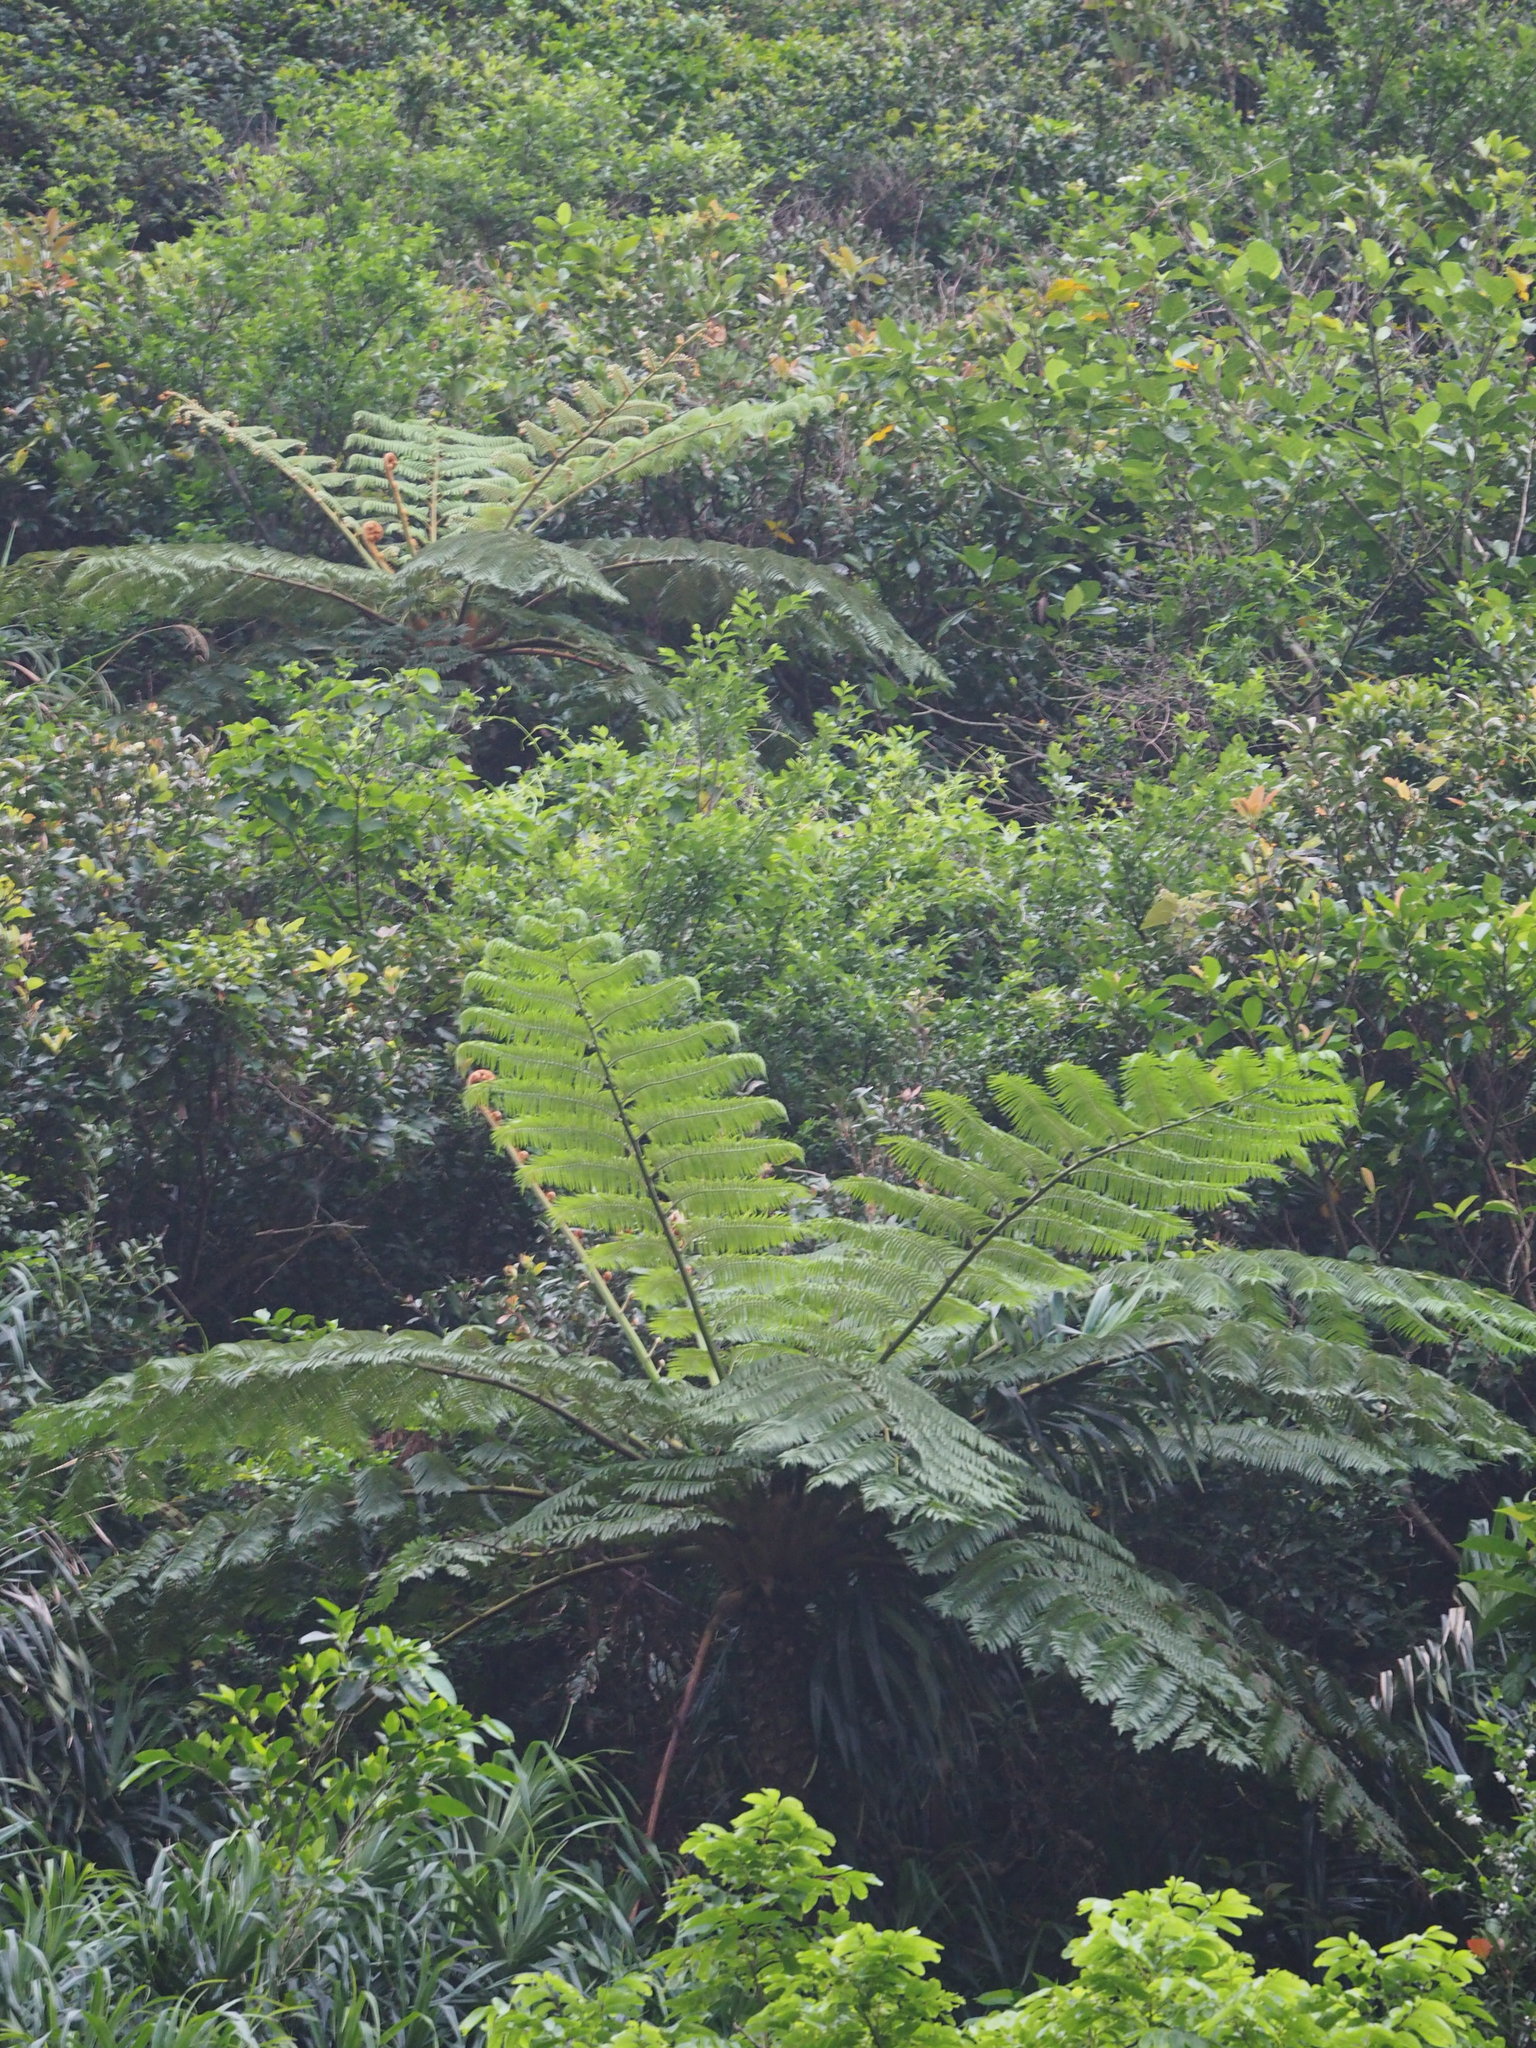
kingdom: Plantae
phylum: Tracheophyta
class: Polypodiopsida
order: Cyatheales
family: Cyatheaceae
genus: Alsophila
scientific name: Alsophila lepifera
